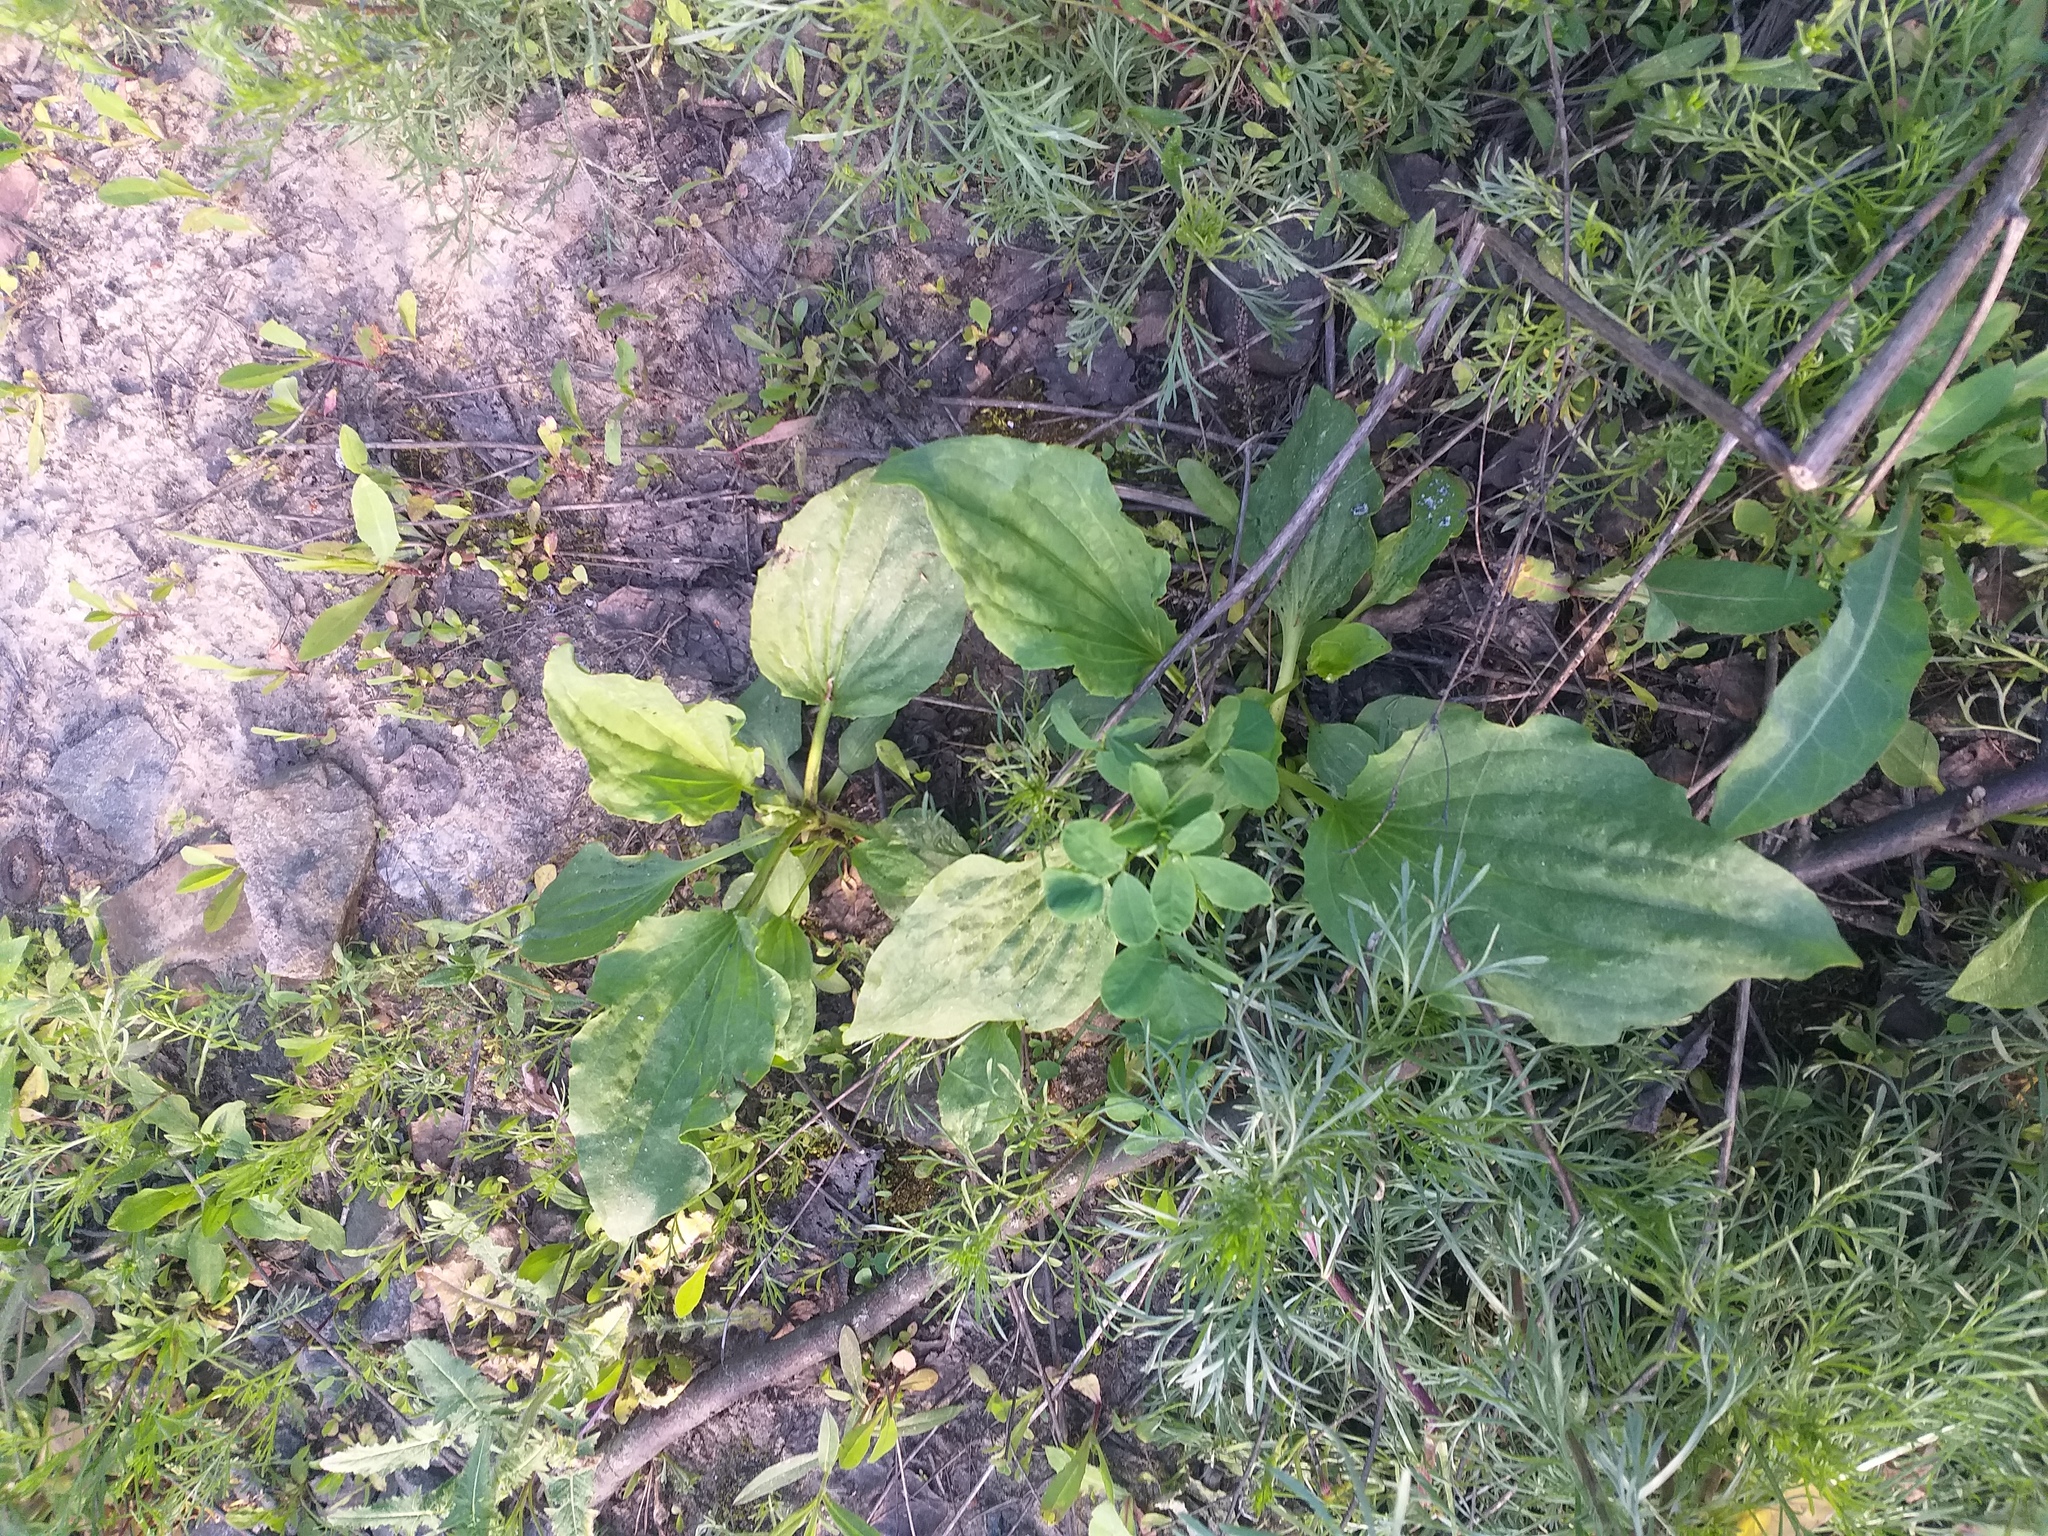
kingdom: Plantae
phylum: Tracheophyta
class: Magnoliopsida
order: Lamiales
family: Plantaginaceae
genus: Plantago
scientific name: Plantago major
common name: Common plantain
